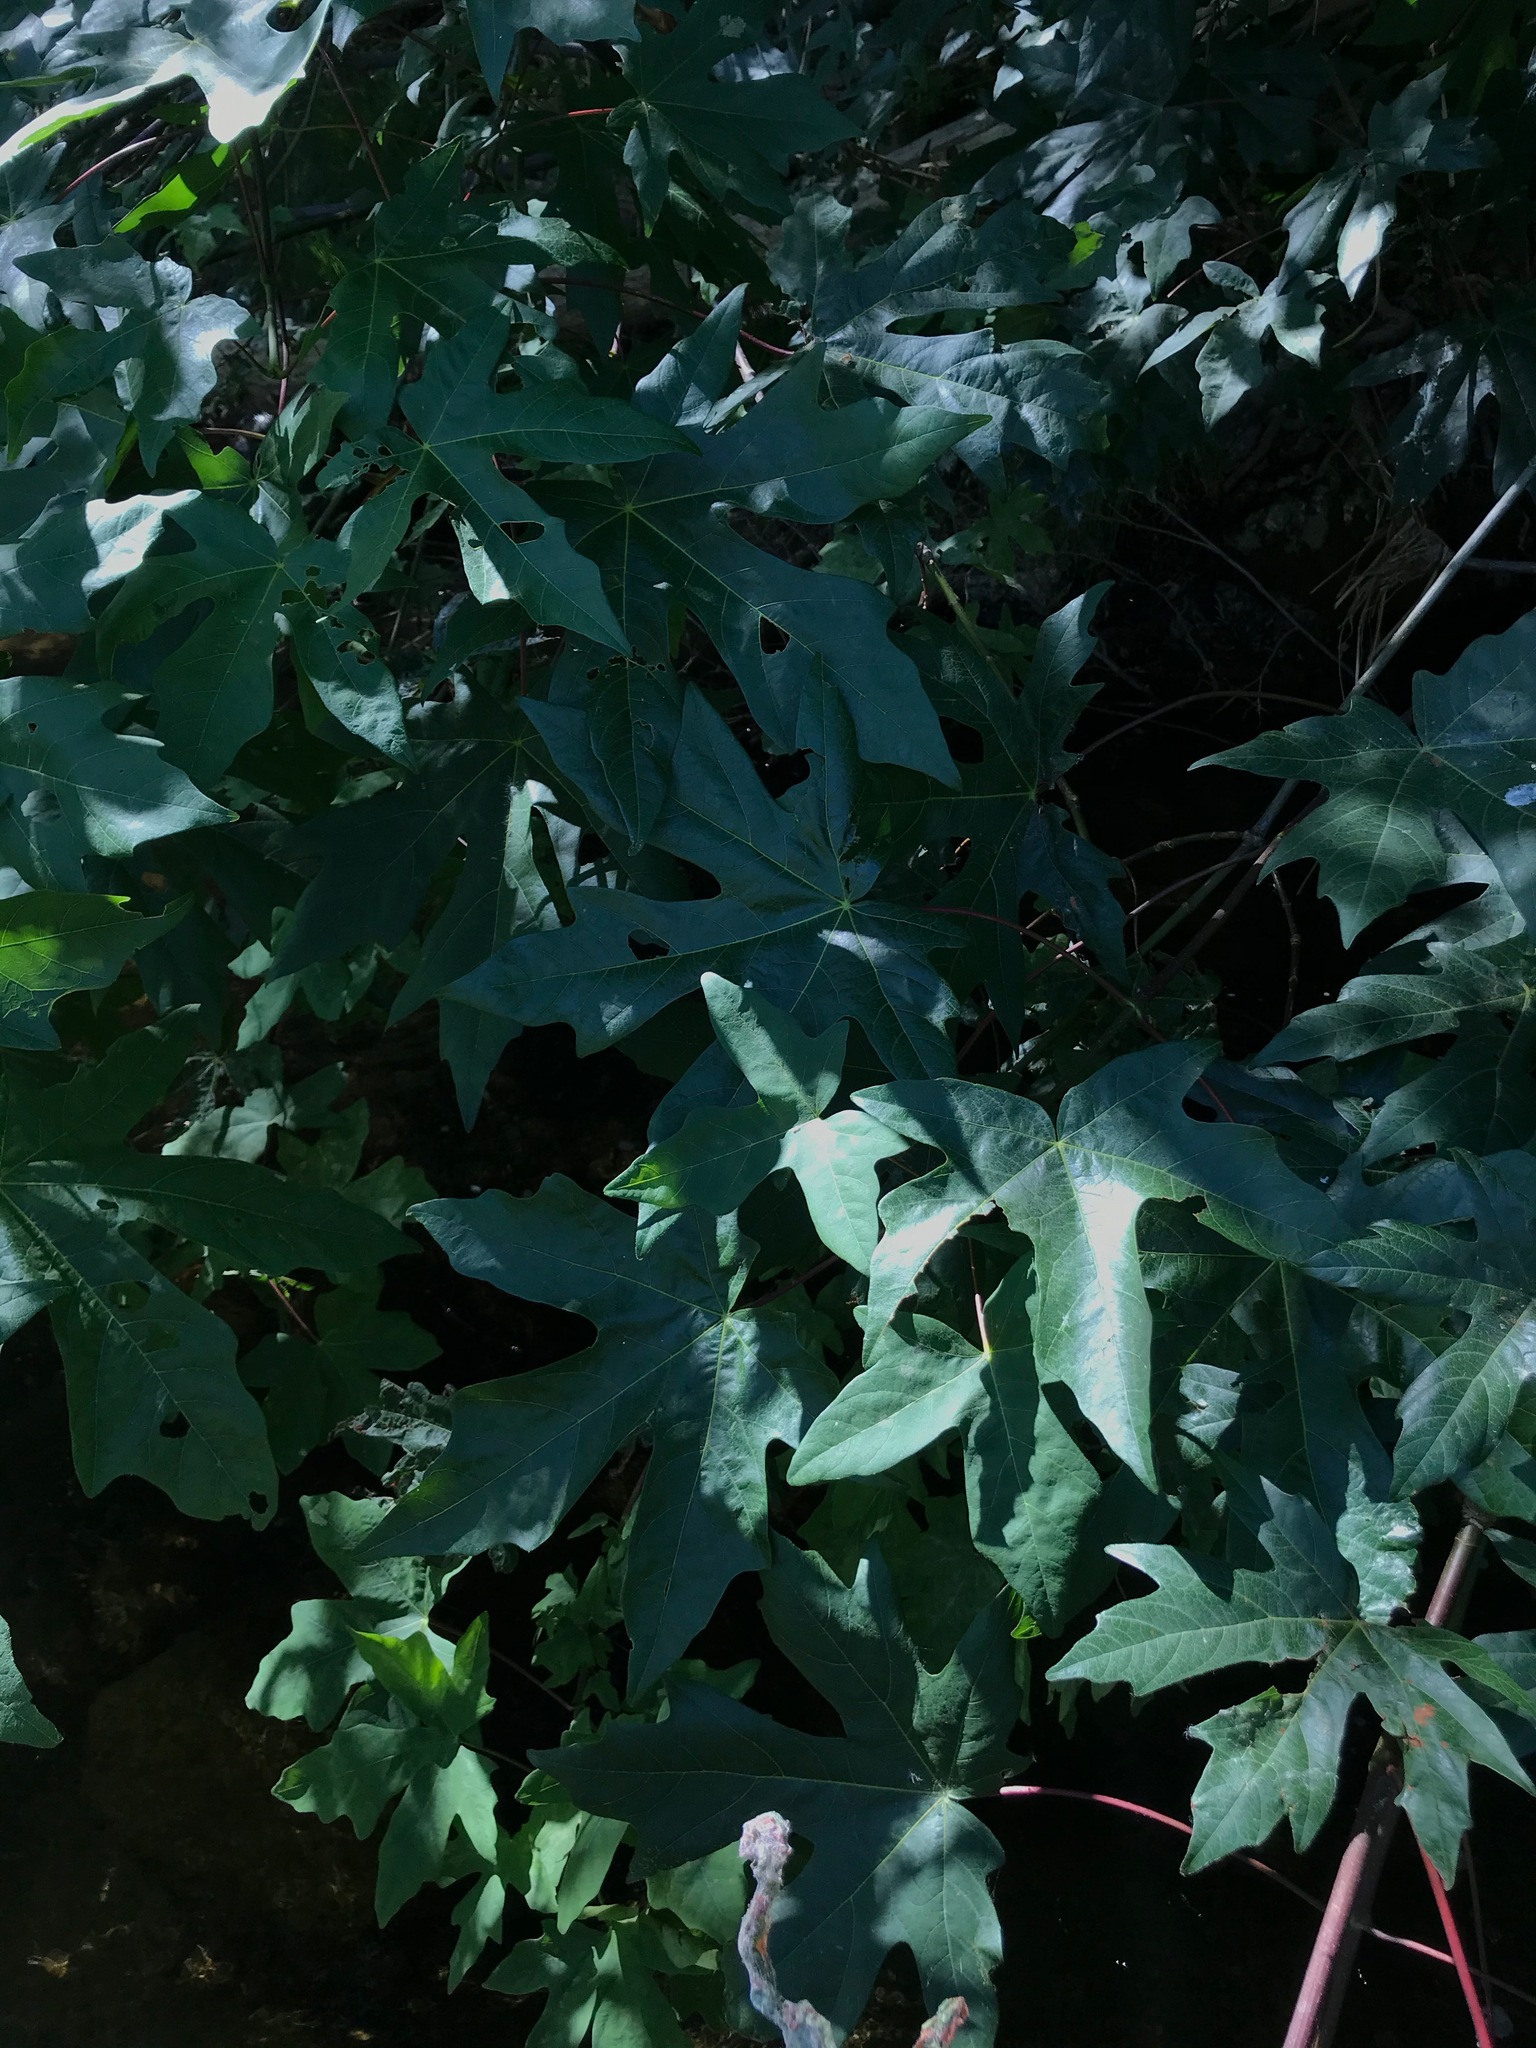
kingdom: Plantae
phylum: Tracheophyta
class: Magnoliopsida
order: Sapindales
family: Sapindaceae
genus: Acer
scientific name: Acer macrophyllum
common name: Oregon maple
